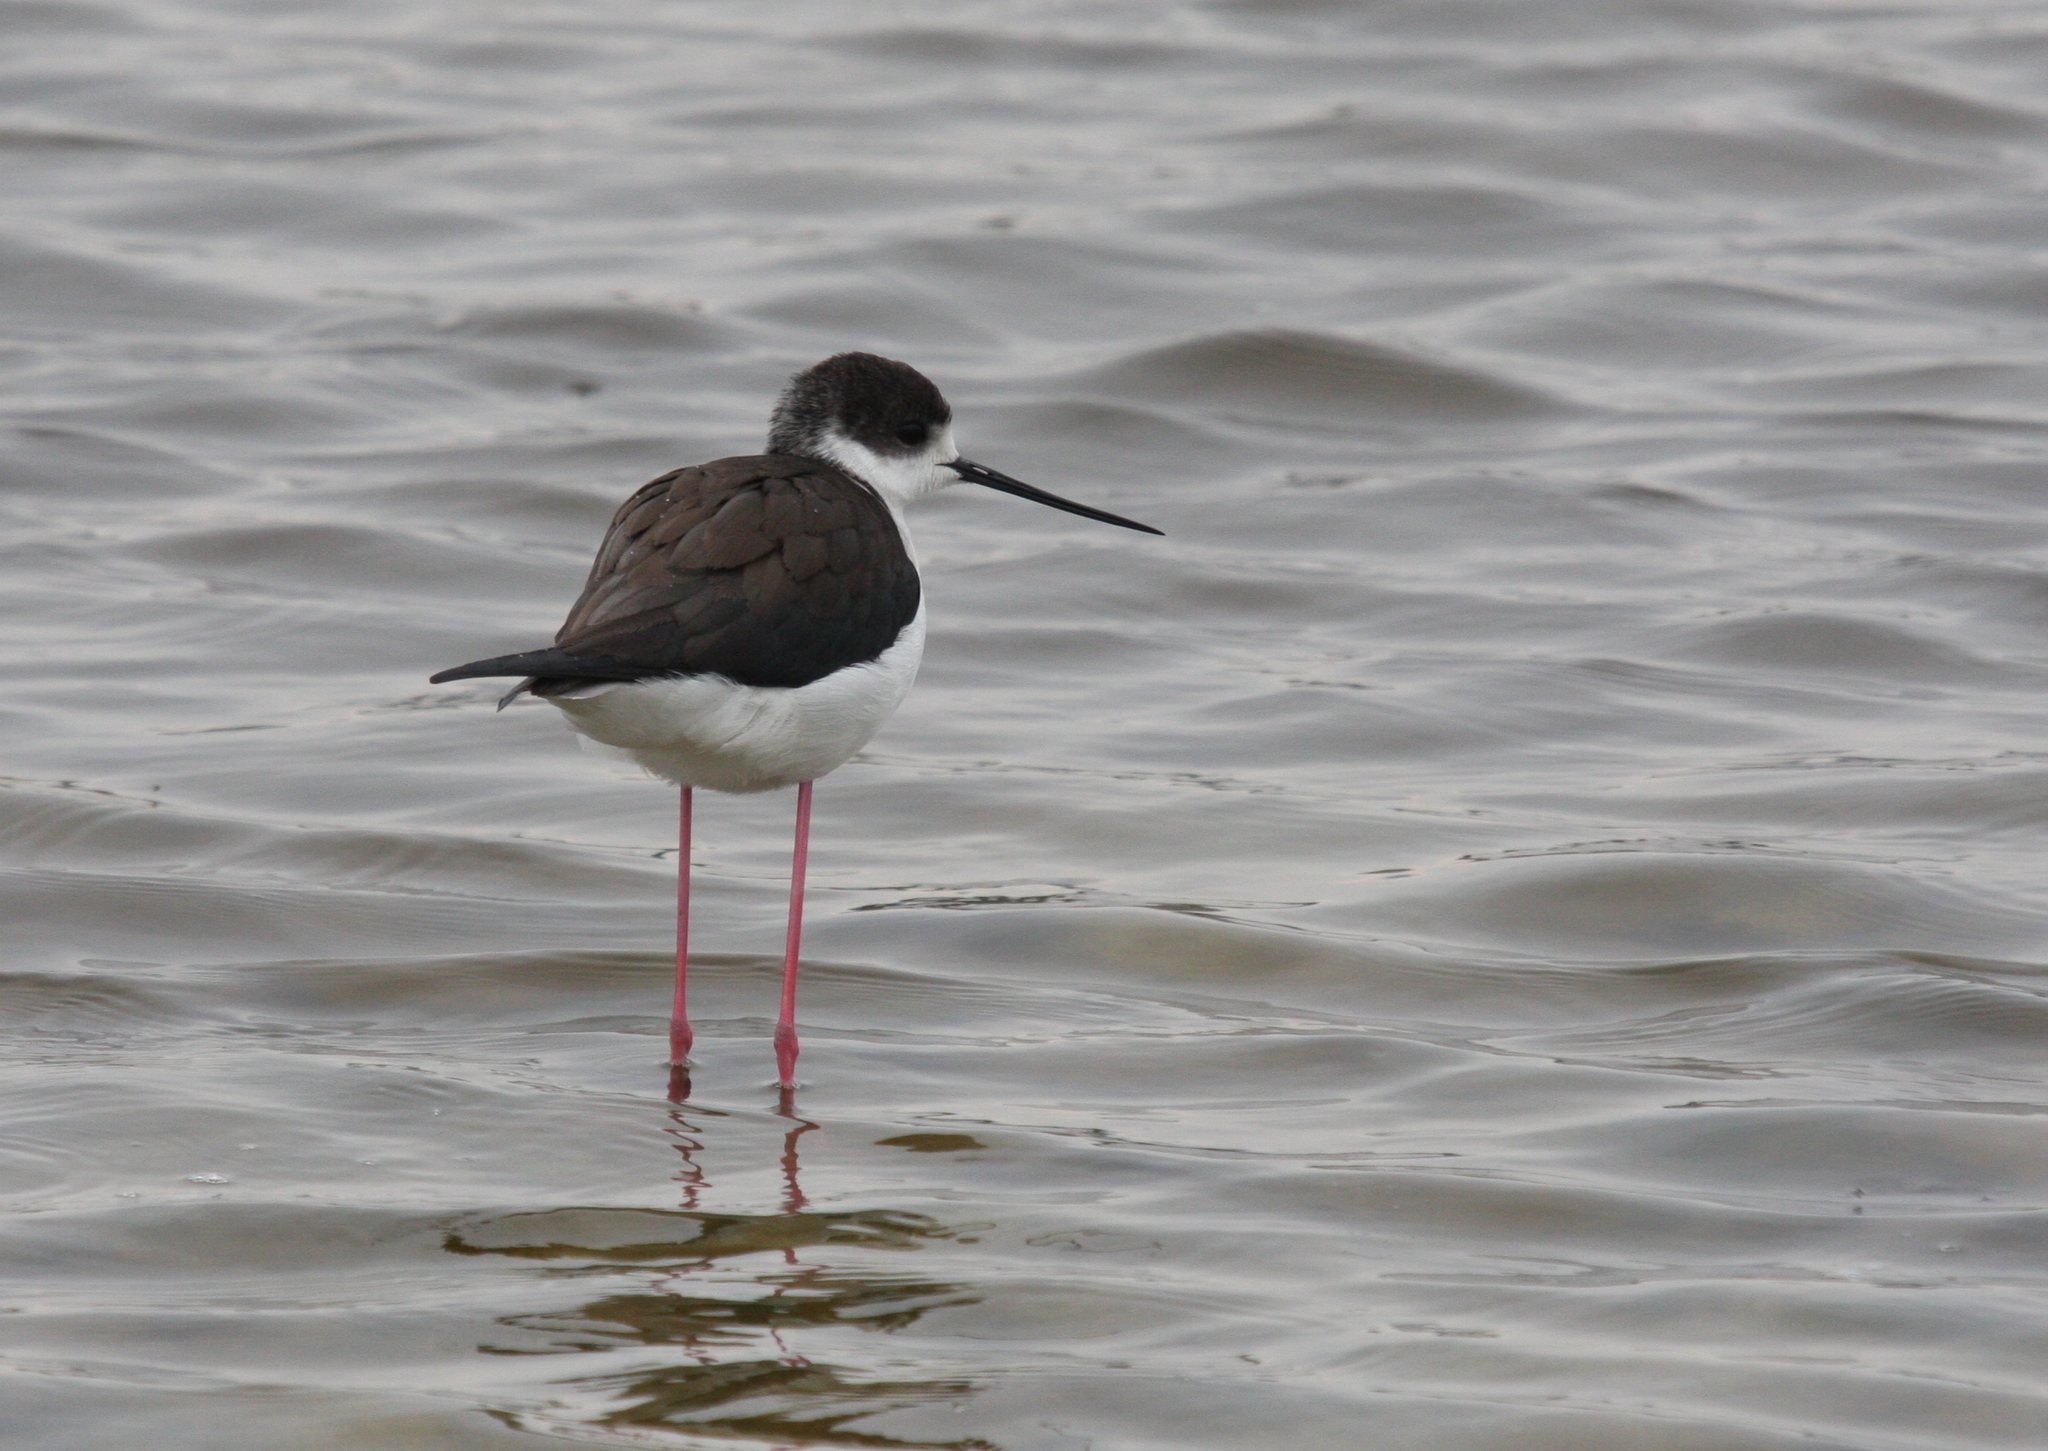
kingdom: Animalia
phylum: Chordata
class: Aves
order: Charadriiformes
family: Recurvirostridae
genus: Himantopus
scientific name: Himantopus himantopus
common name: Black-winged stilt
